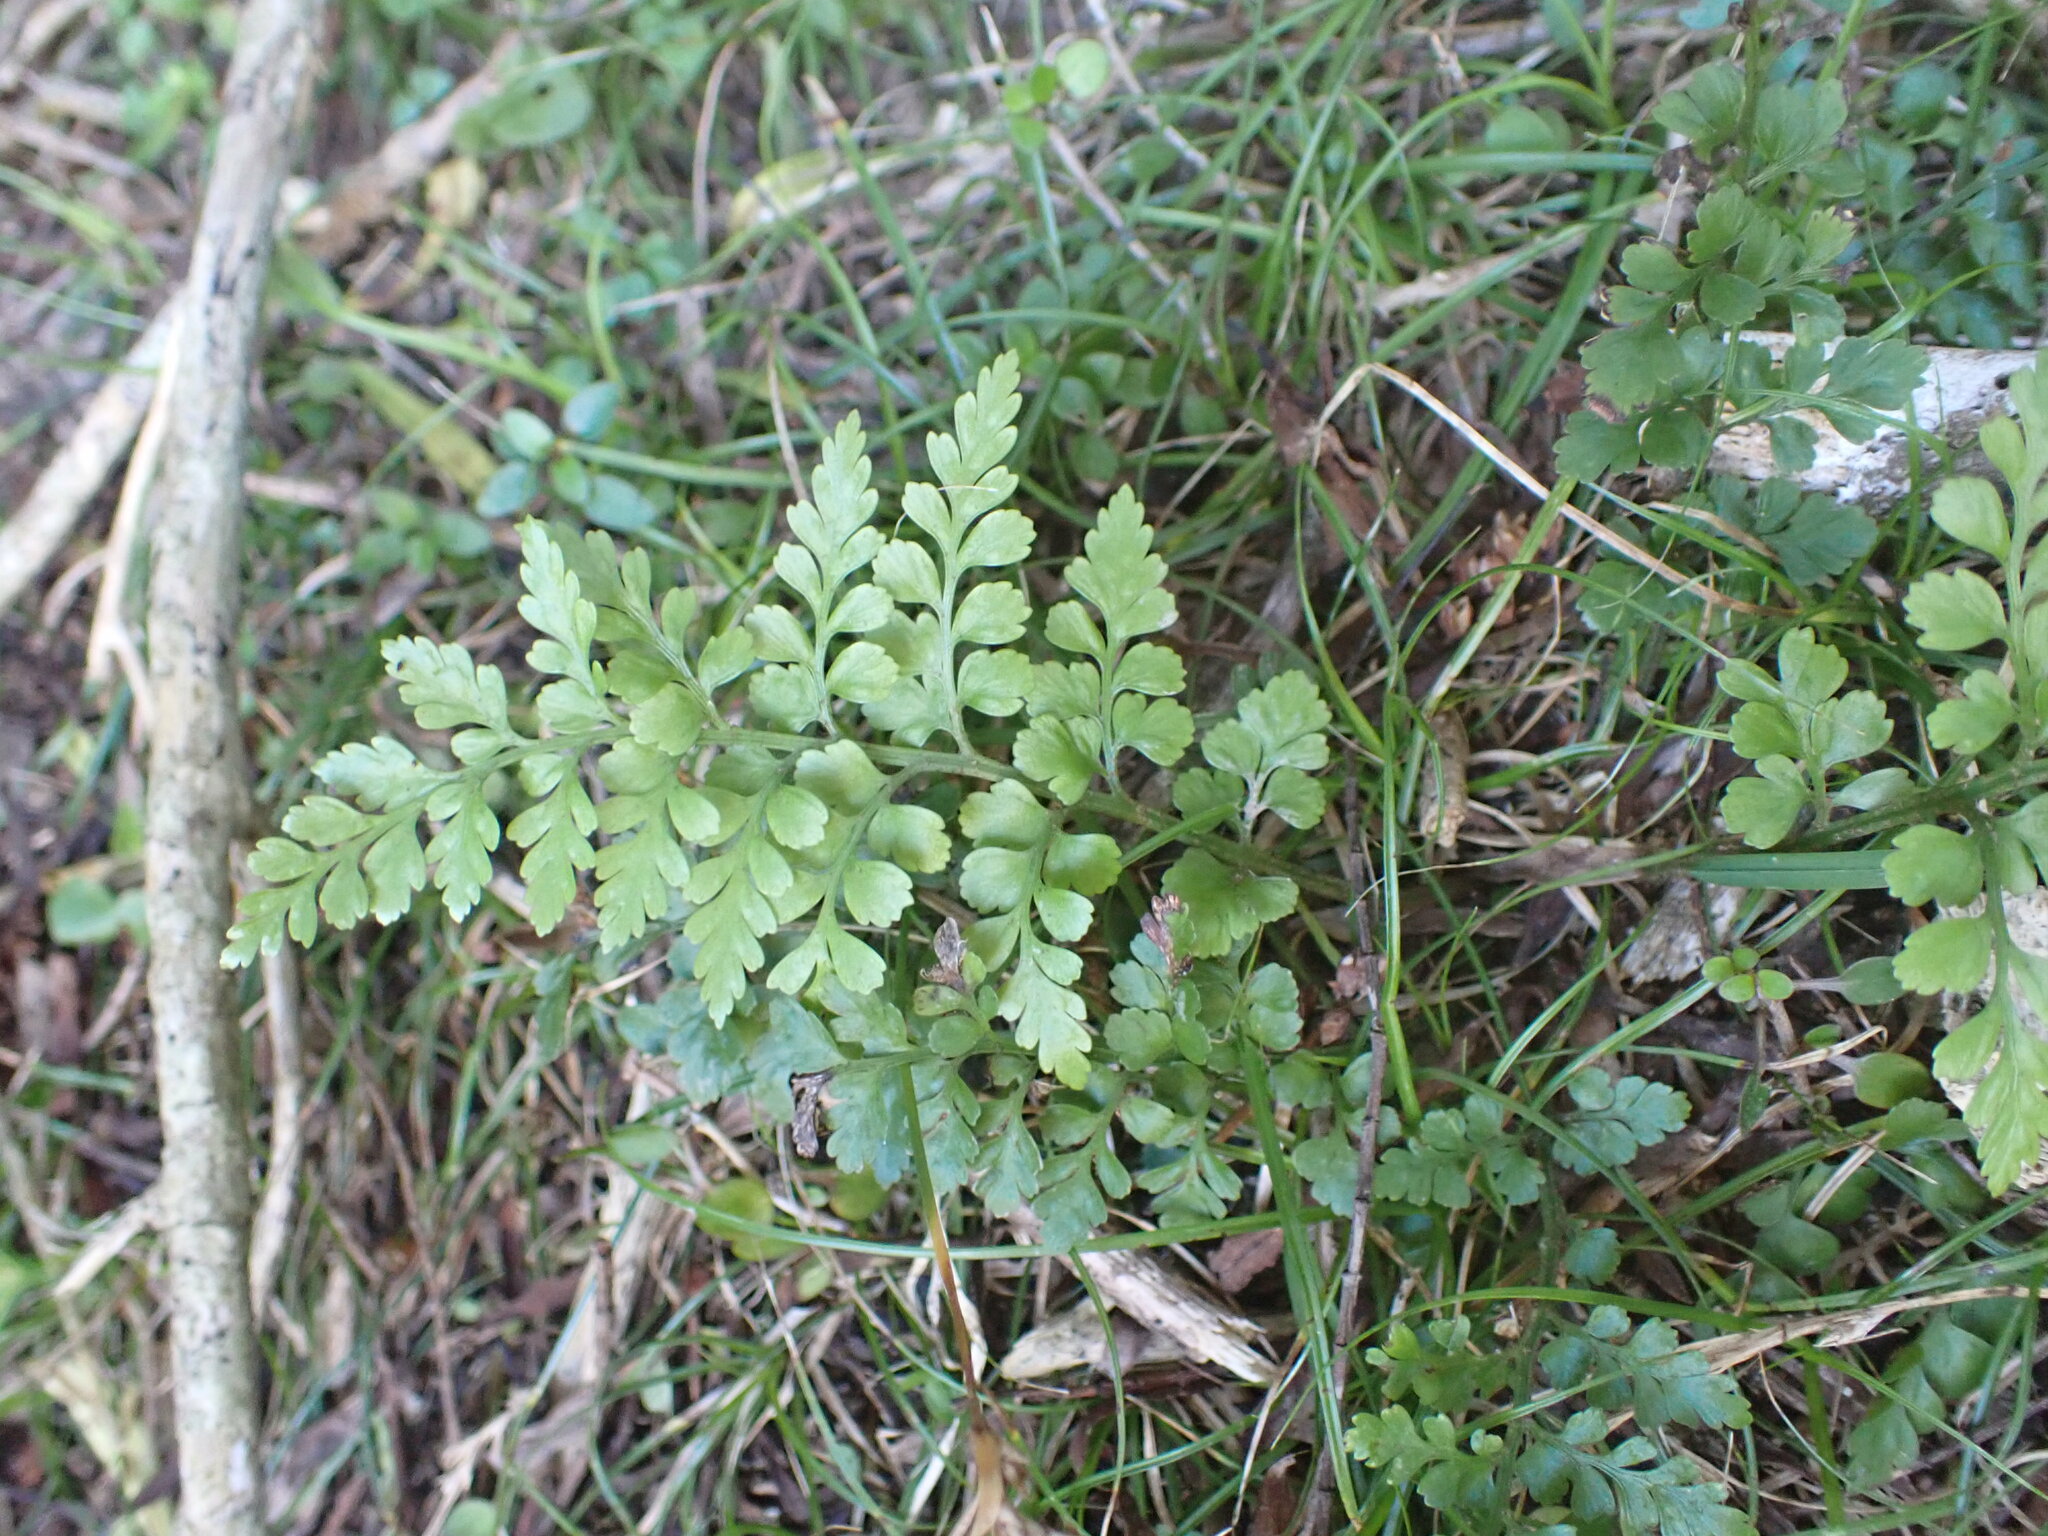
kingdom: Plantae
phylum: Tracheophyta
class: Polypodiopsida
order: Polypodiales
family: Aspleniaceae
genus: Asplenium
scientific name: Asplenium hookerianum
